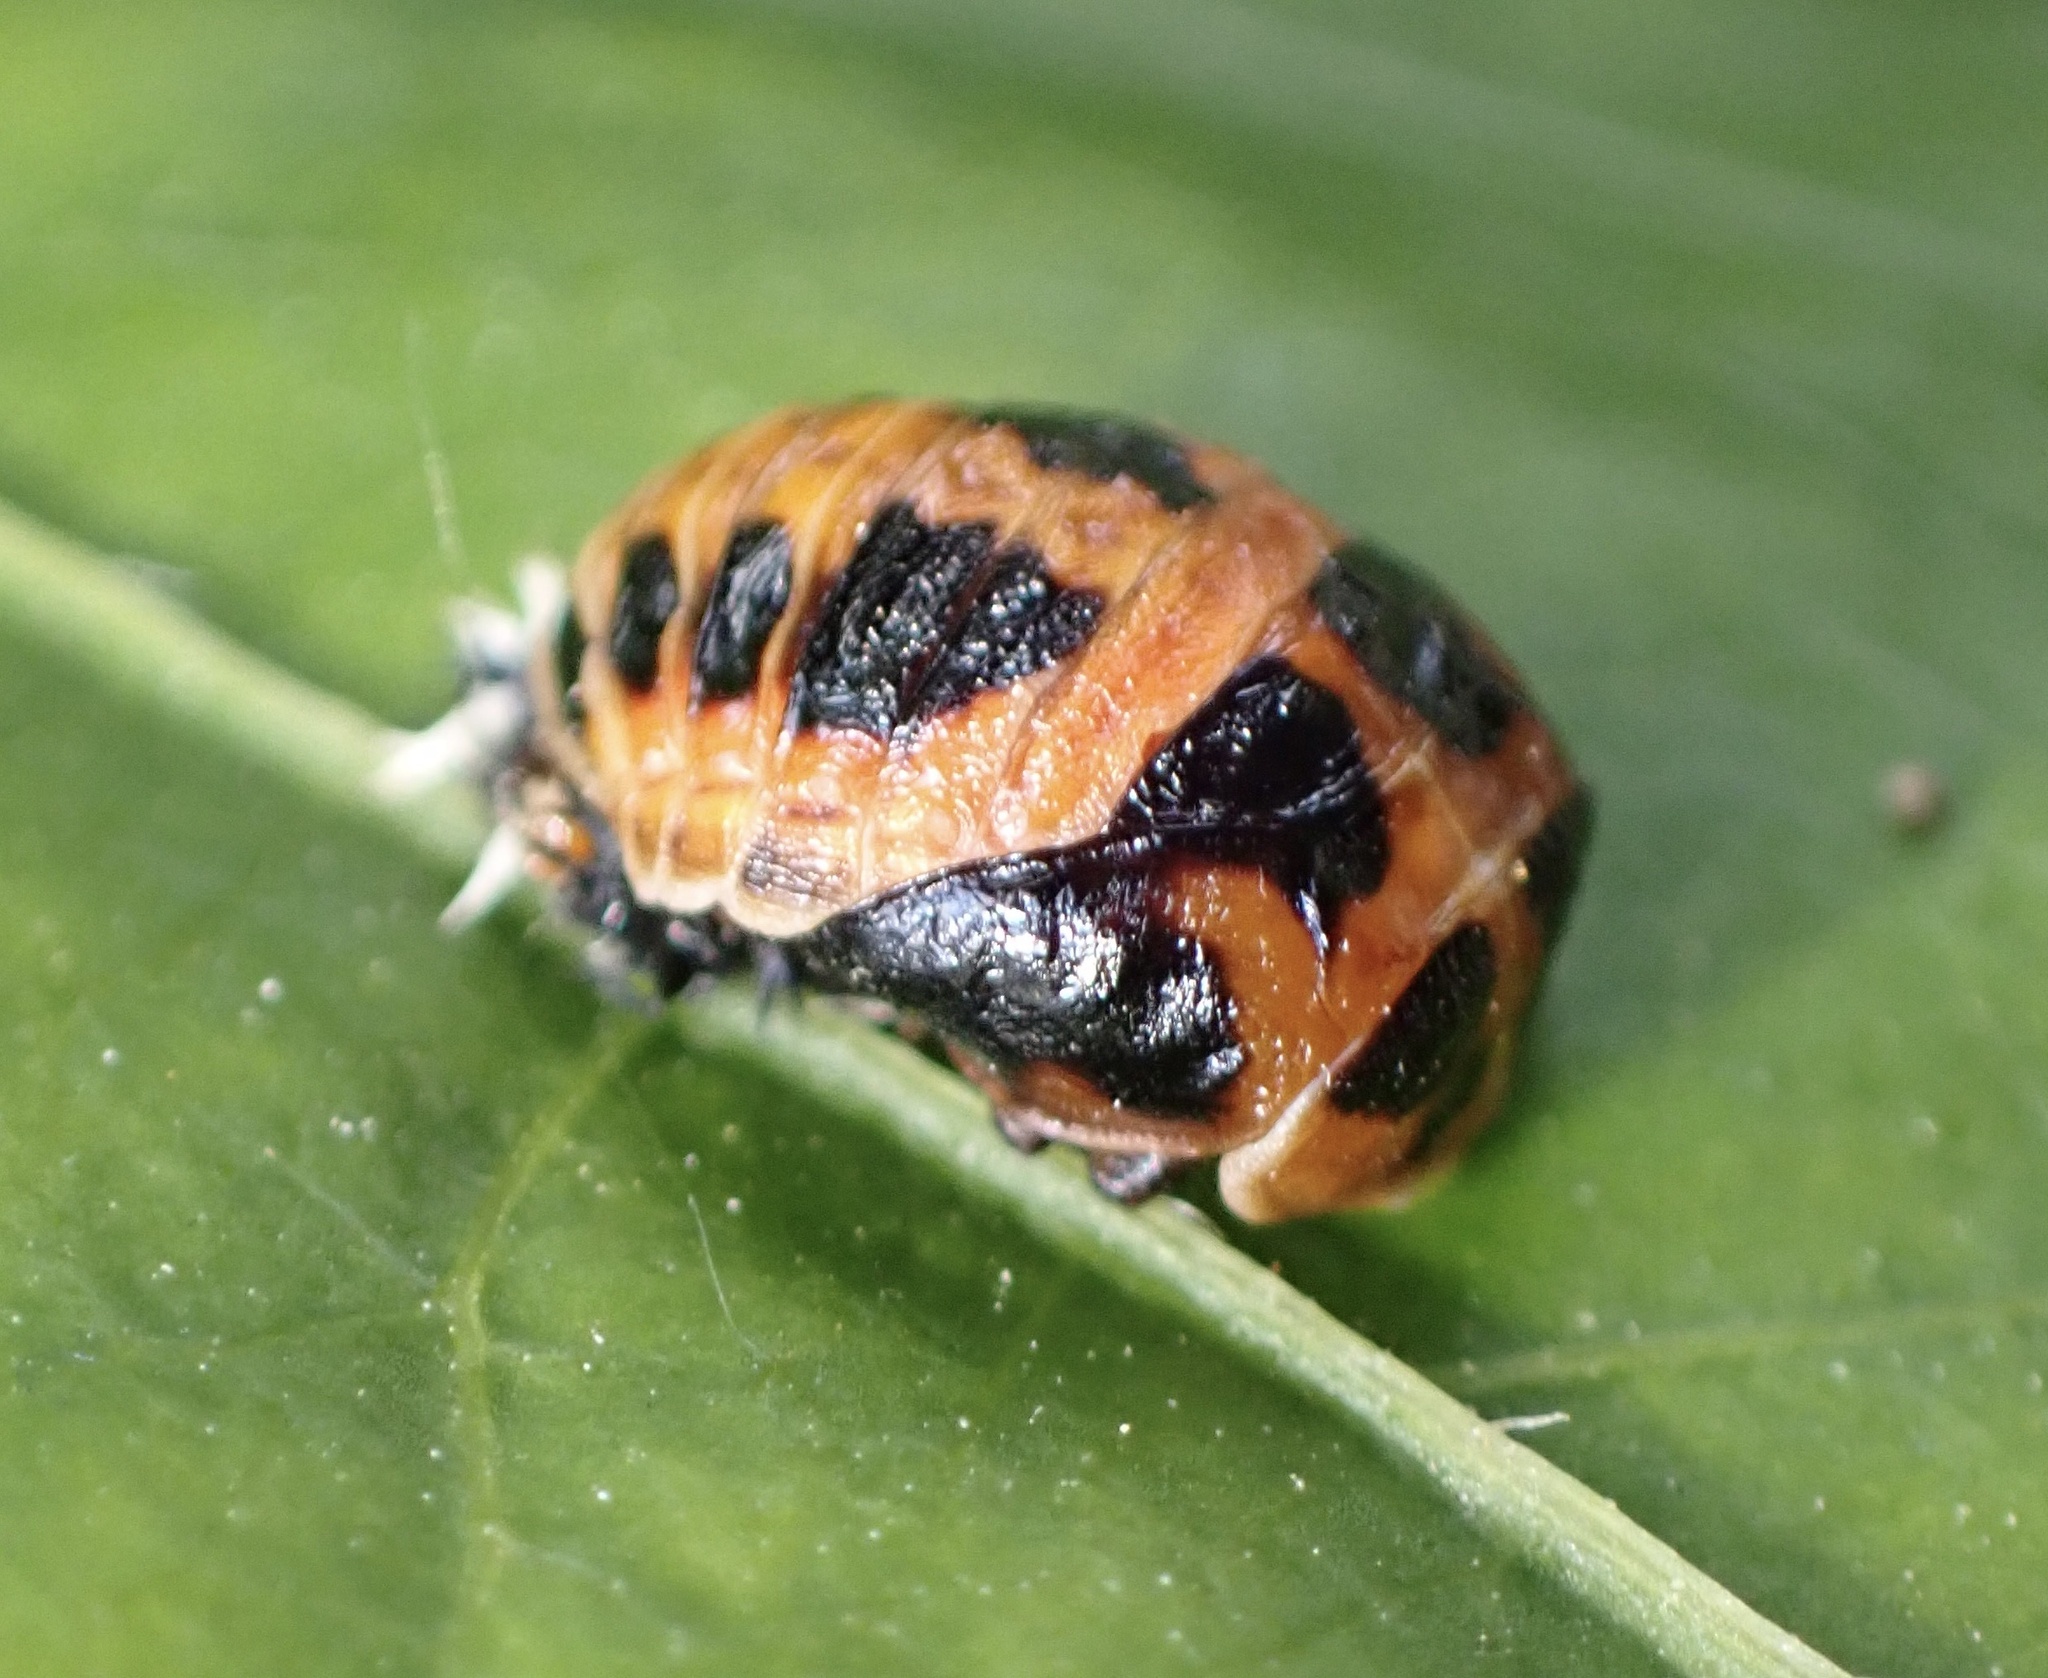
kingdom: Animalia
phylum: Arthropoda
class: Insecta
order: Coleoptera
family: Coccinellidae
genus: Harmonia
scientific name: Harmonia axyridis
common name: Harlequin ladybird
